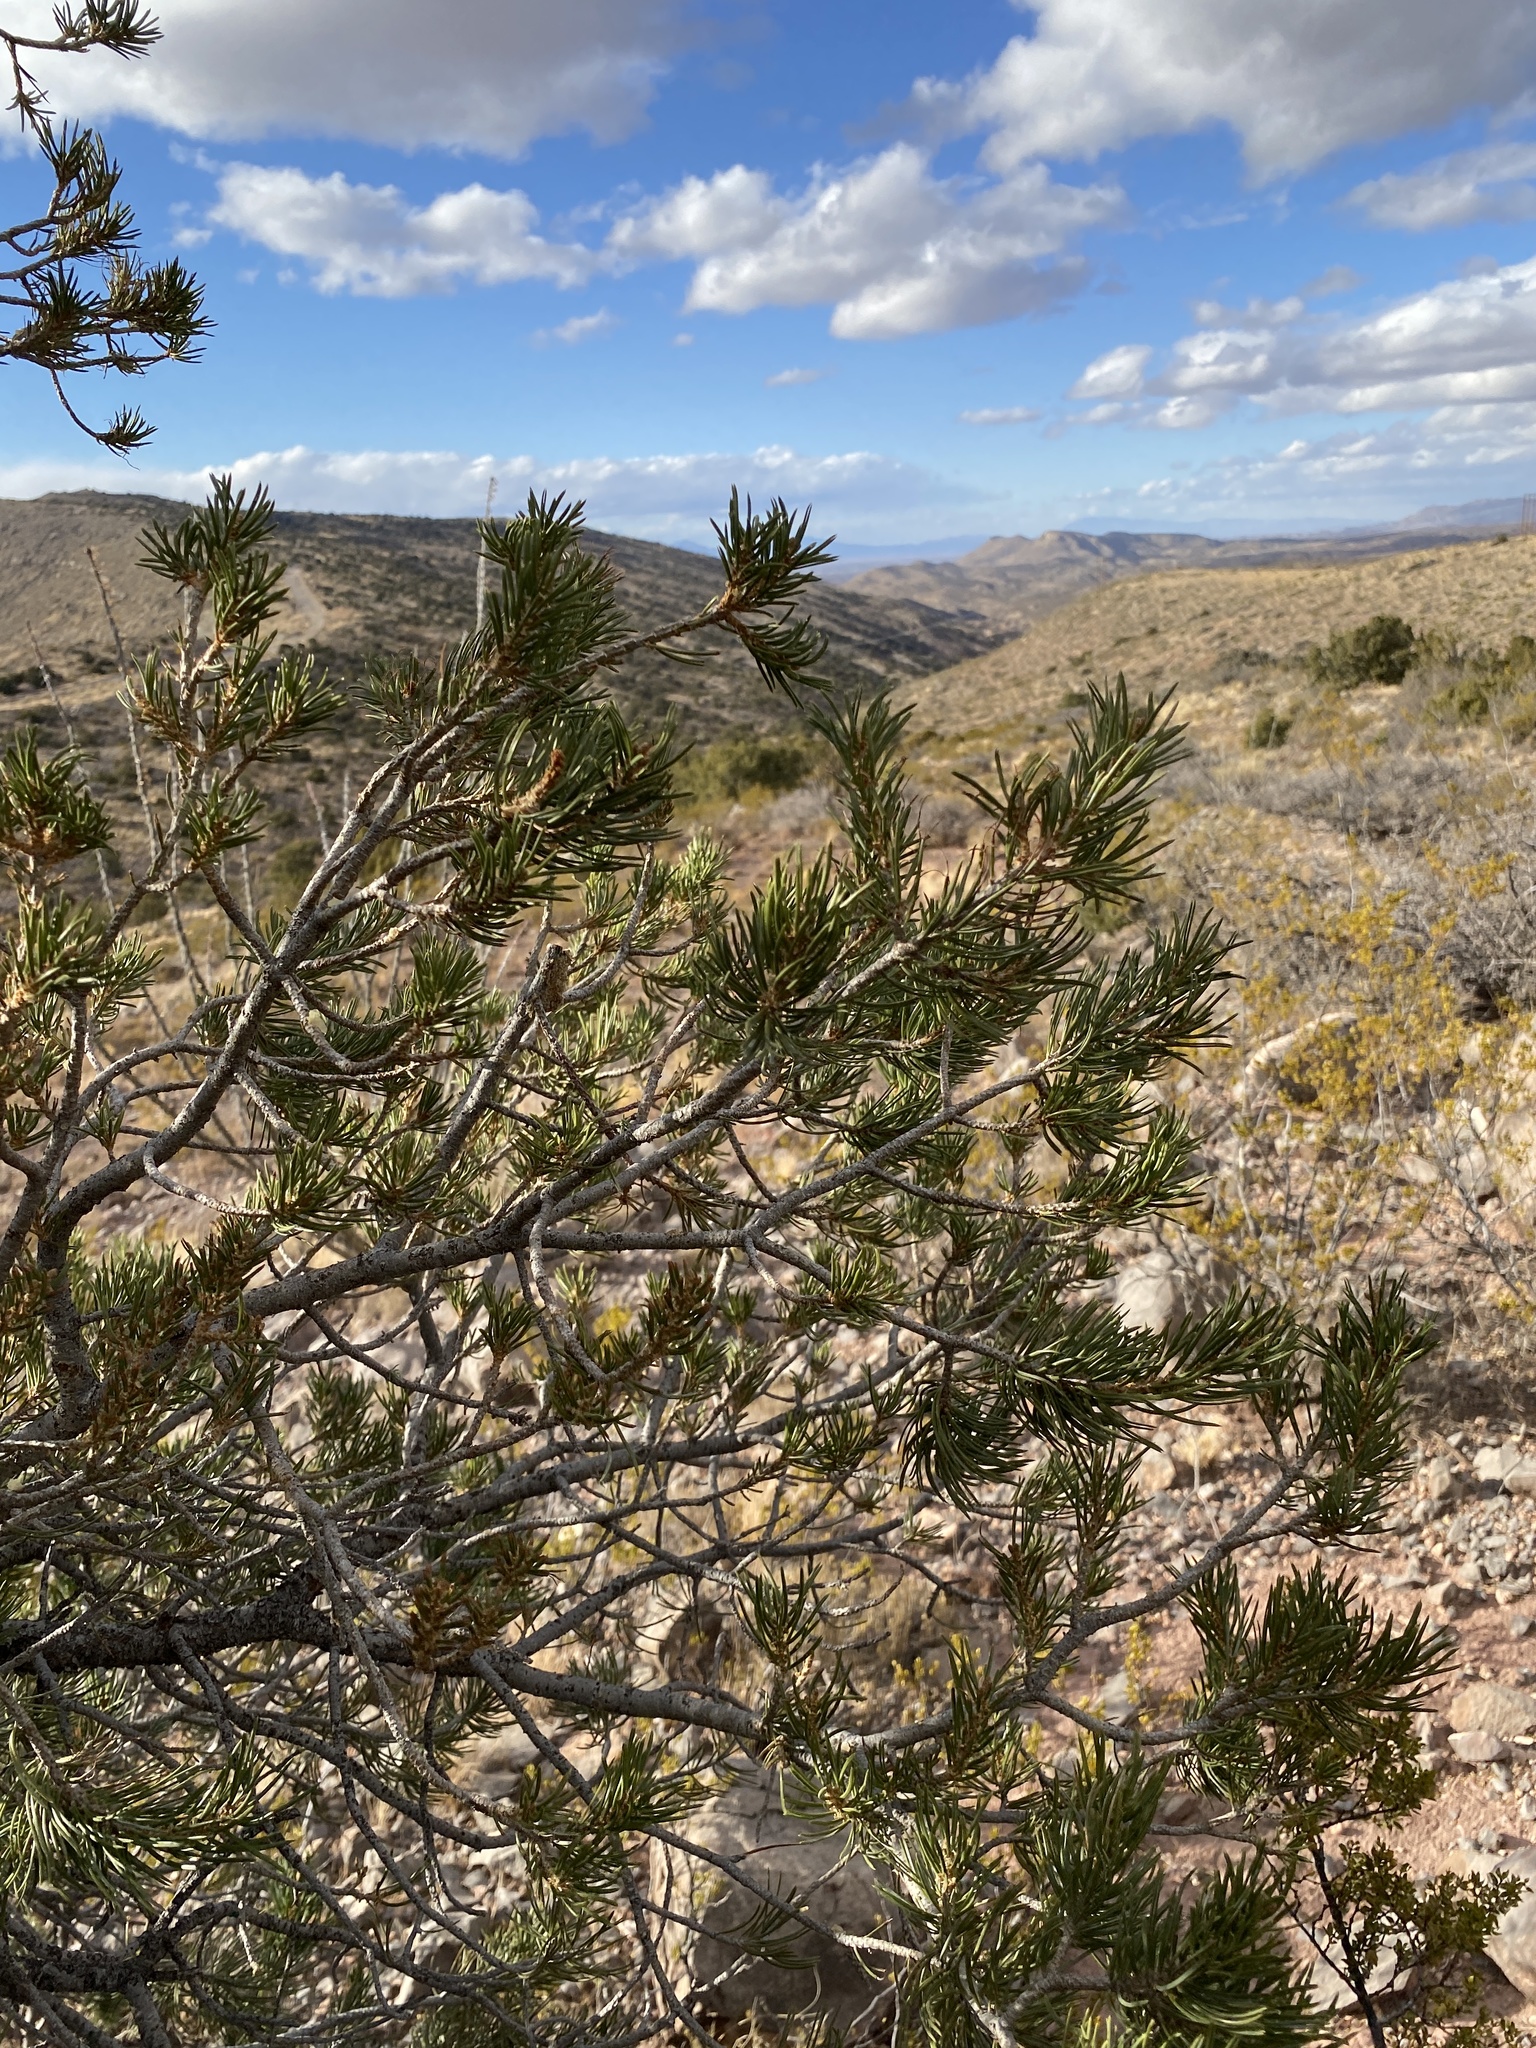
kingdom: Plantae
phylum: Tracheophyta
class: Pinopsida
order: Pinales
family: Pinaceae
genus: Pinus
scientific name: Pinus edulis
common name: Colorado pinyon
